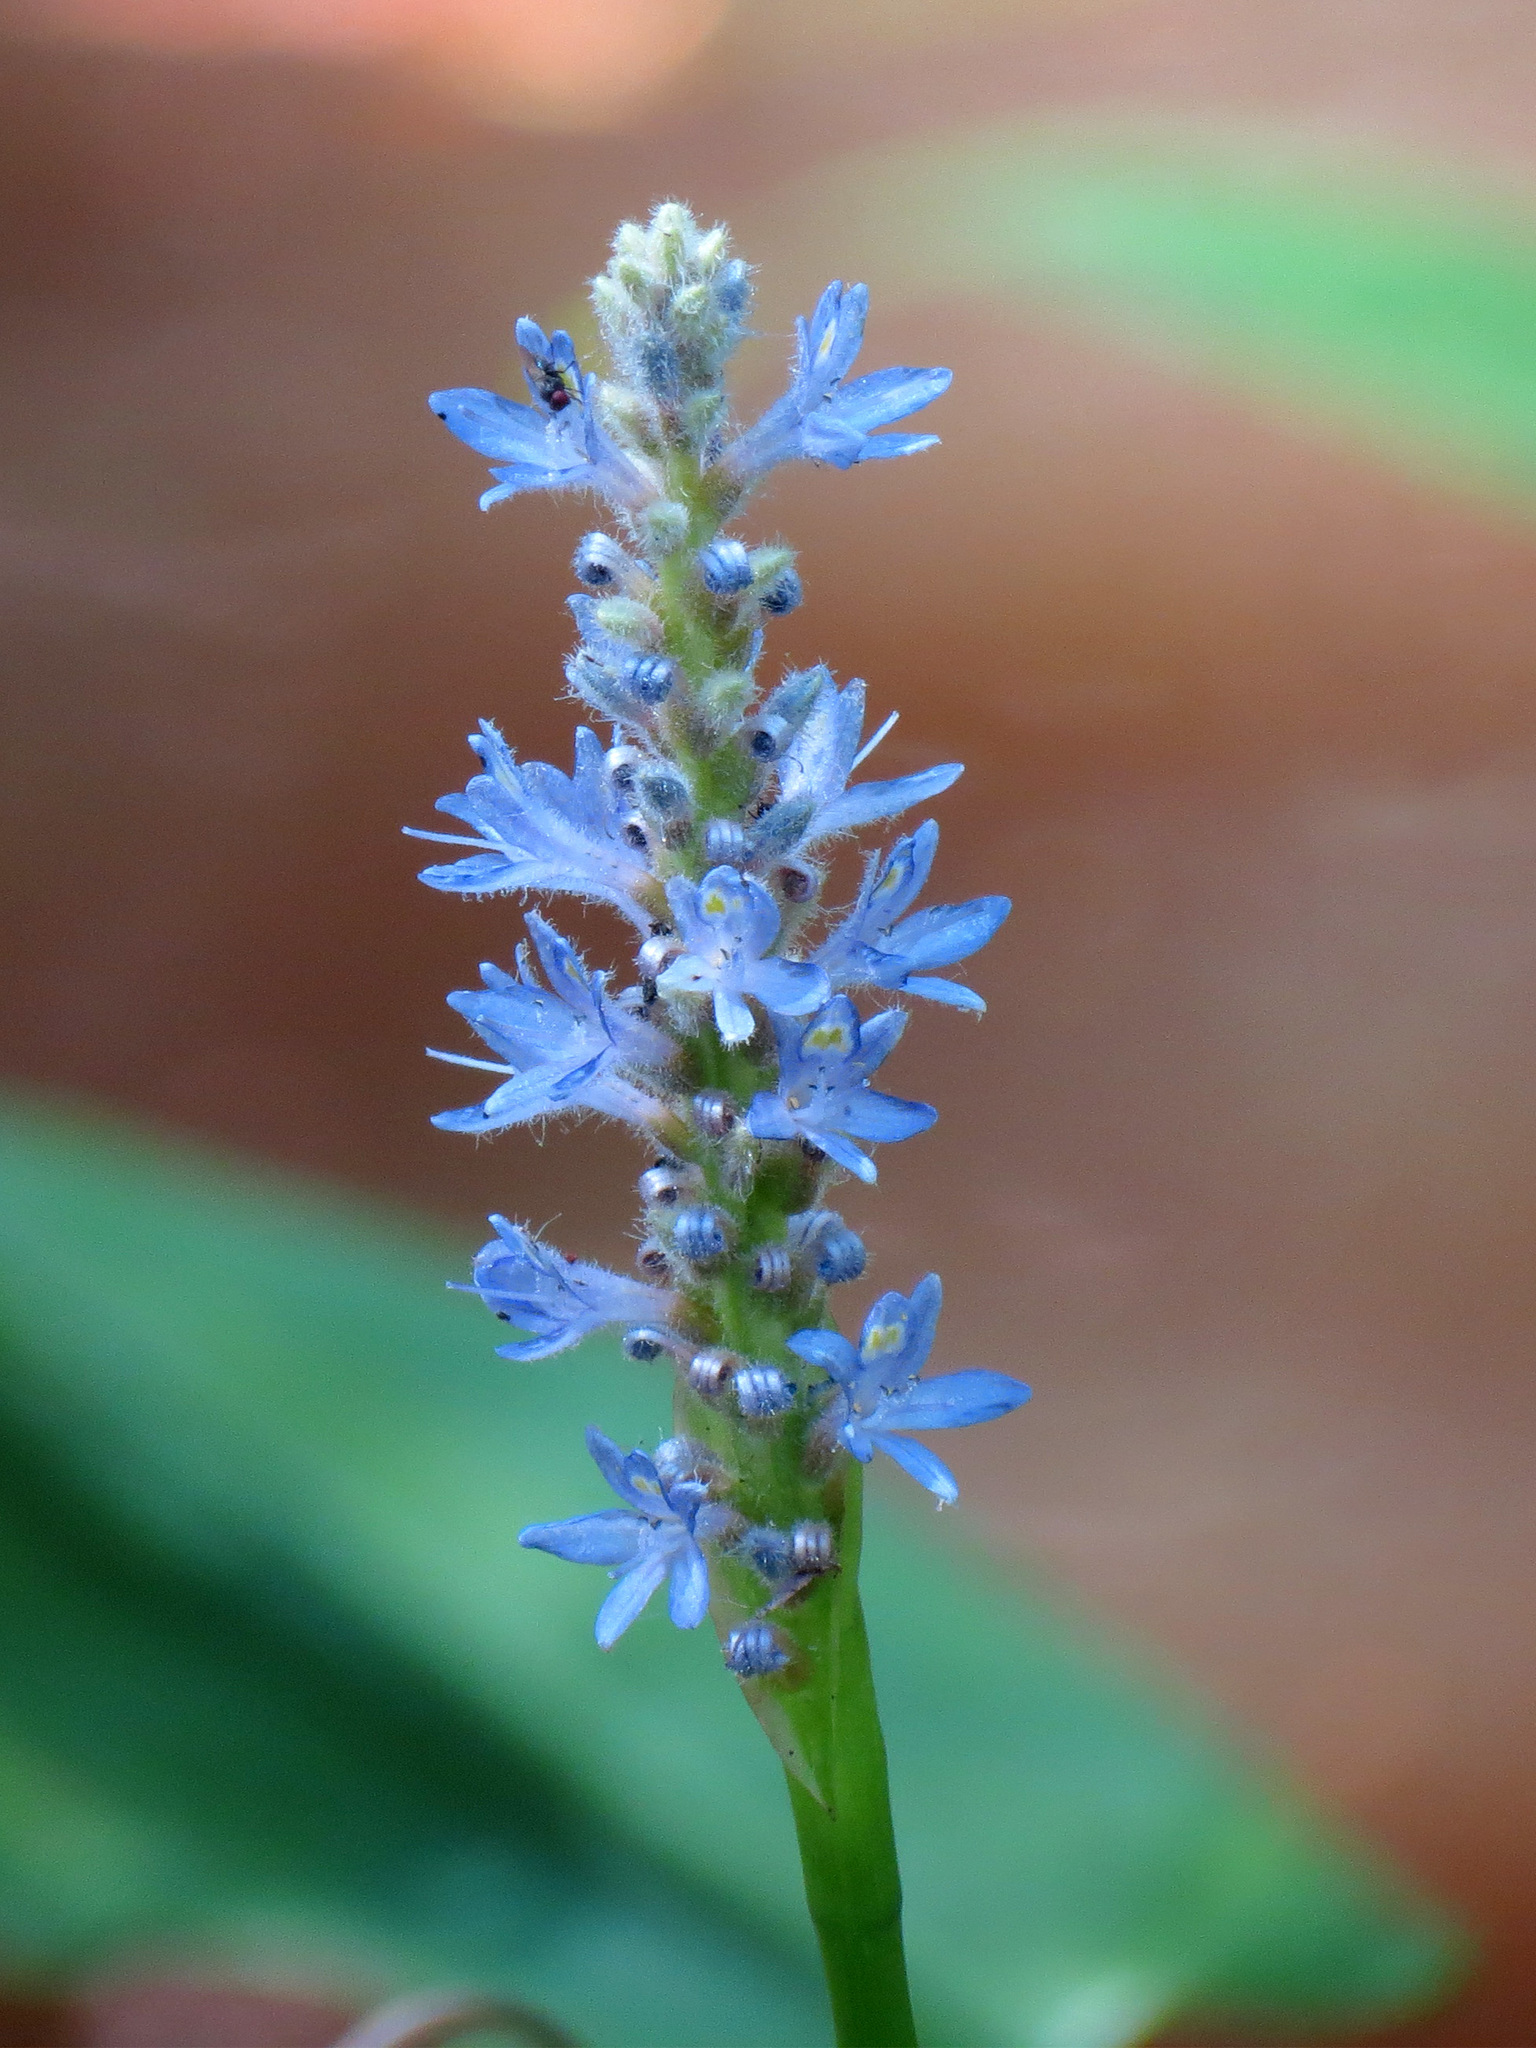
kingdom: Plantae
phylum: Tracheophyta
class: Liliopsida
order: Commelinales
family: Pontederiaceae
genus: Pontederia
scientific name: Pontederia cordata
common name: Pickerelweed
